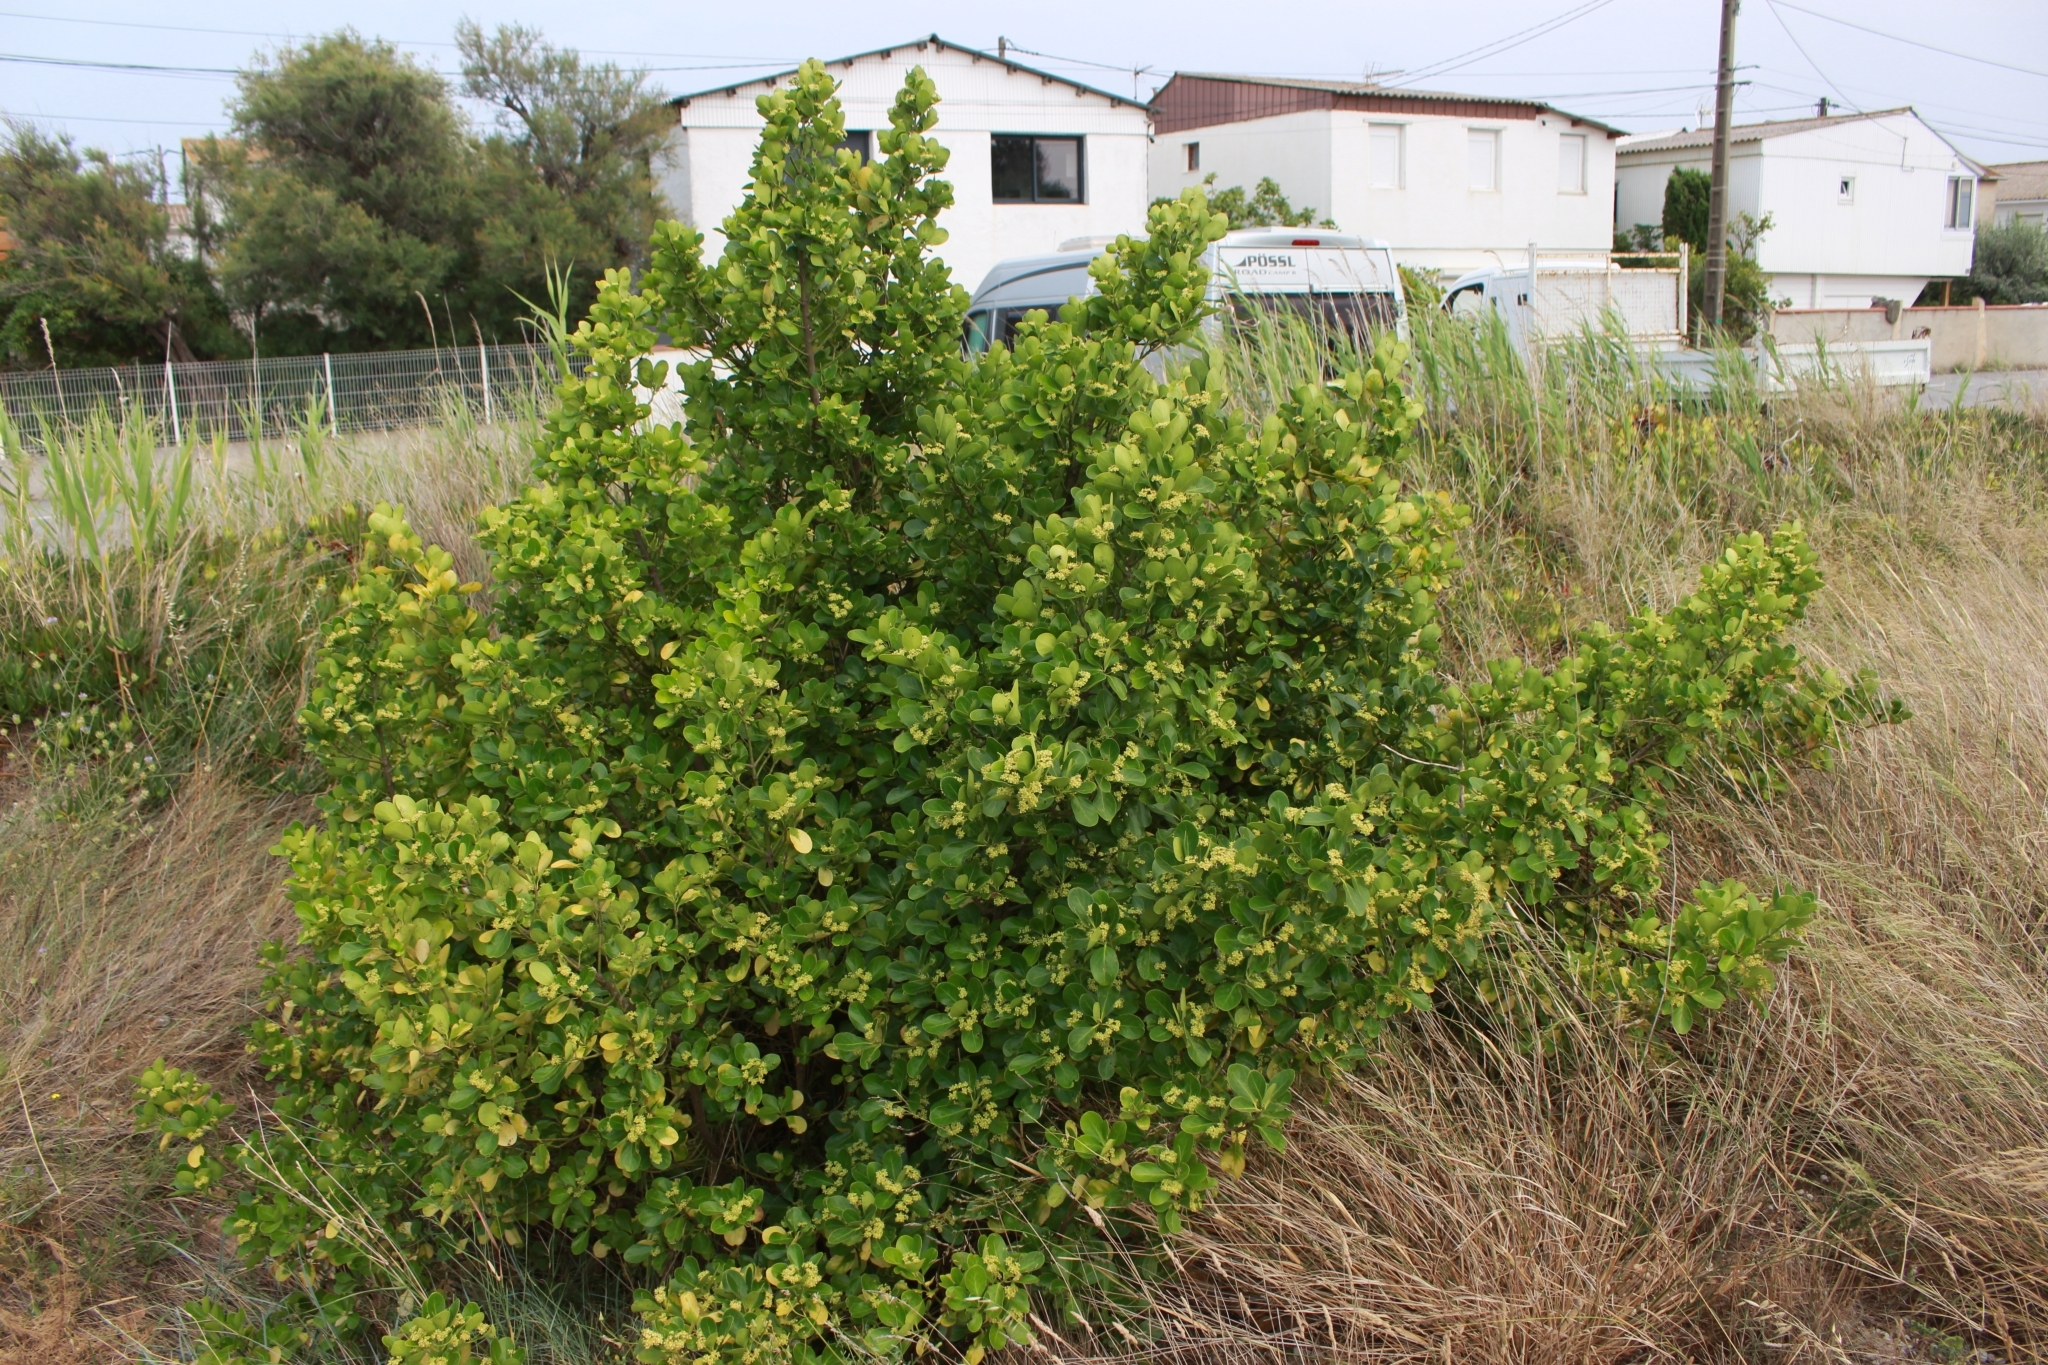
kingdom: Plantae
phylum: Tracheophyta
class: Magnoliopsida
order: Celastrales
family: Celastraceae
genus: Euonymus
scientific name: Euonymus japonicus
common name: Japanese spindletree
